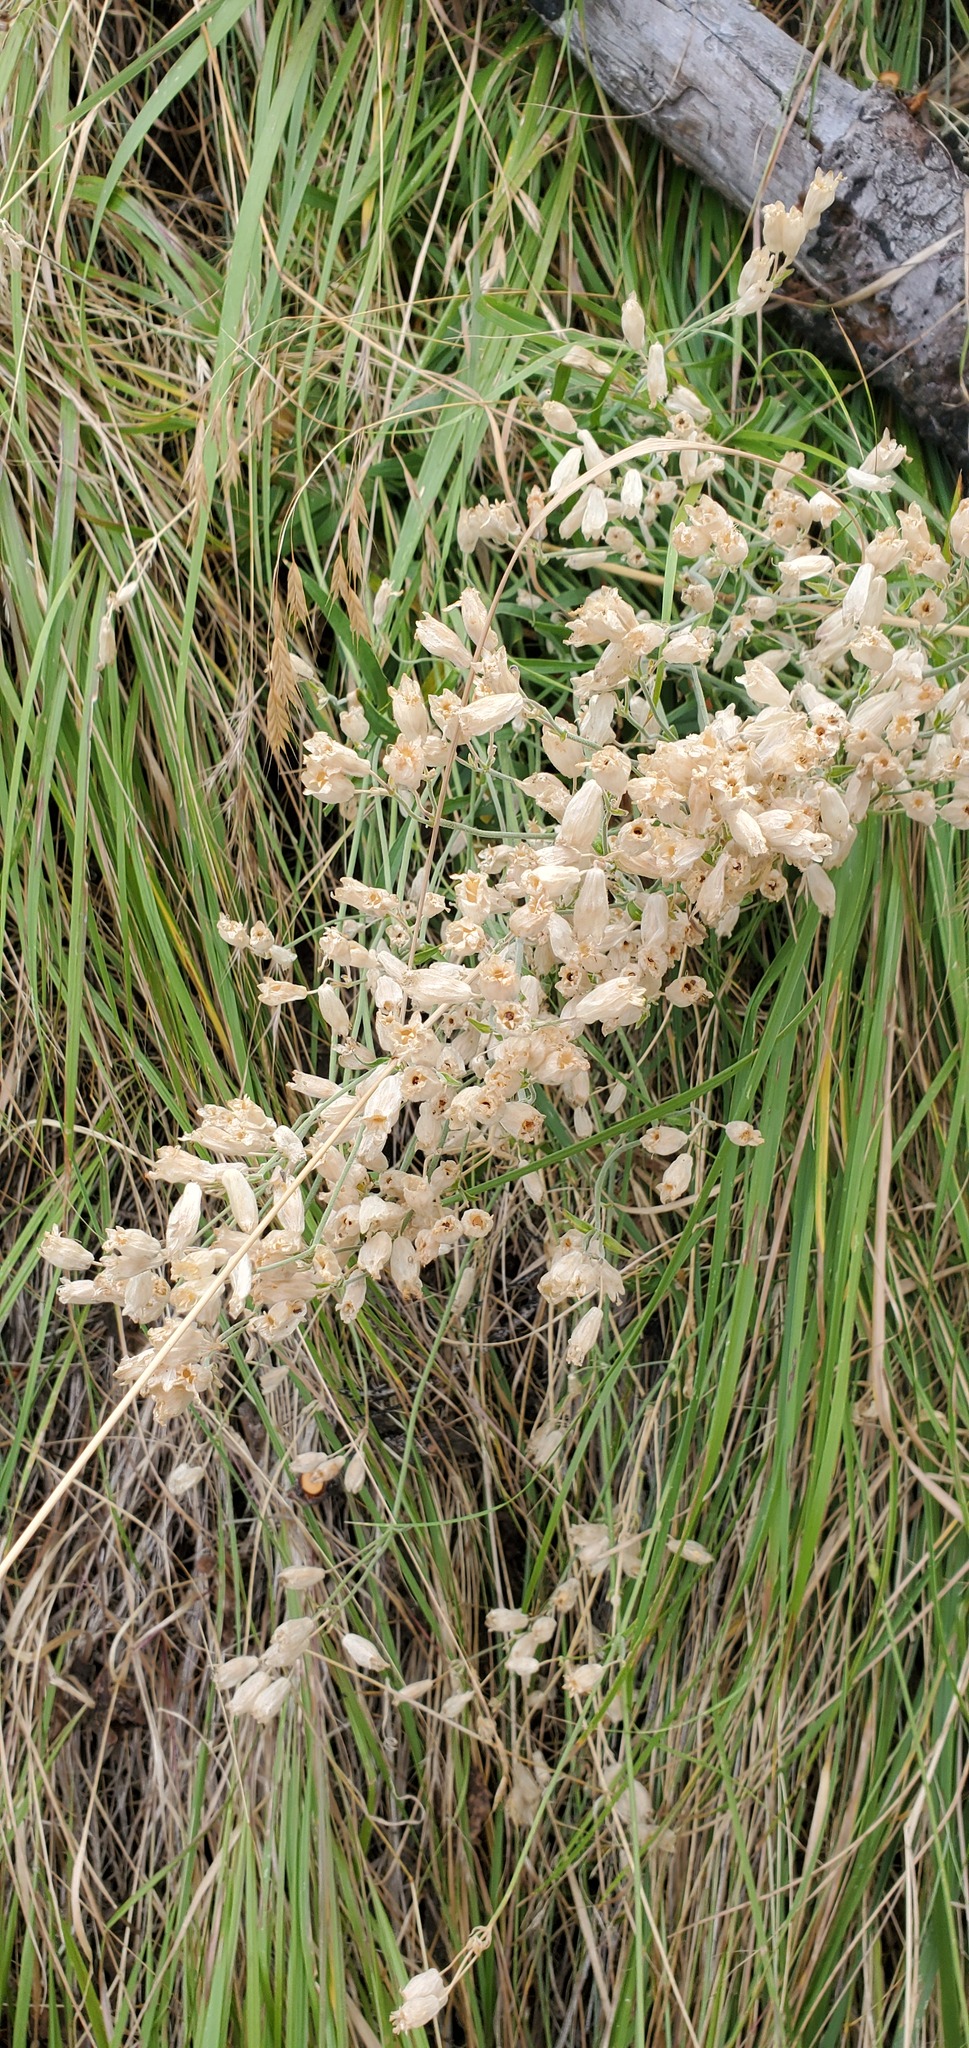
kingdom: Plantae
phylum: Tracheophyta
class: Magnoliopsida
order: Caryophyllales
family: Caryophyllaceae
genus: Silene
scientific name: Silene vulgaris
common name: Bladder campion
